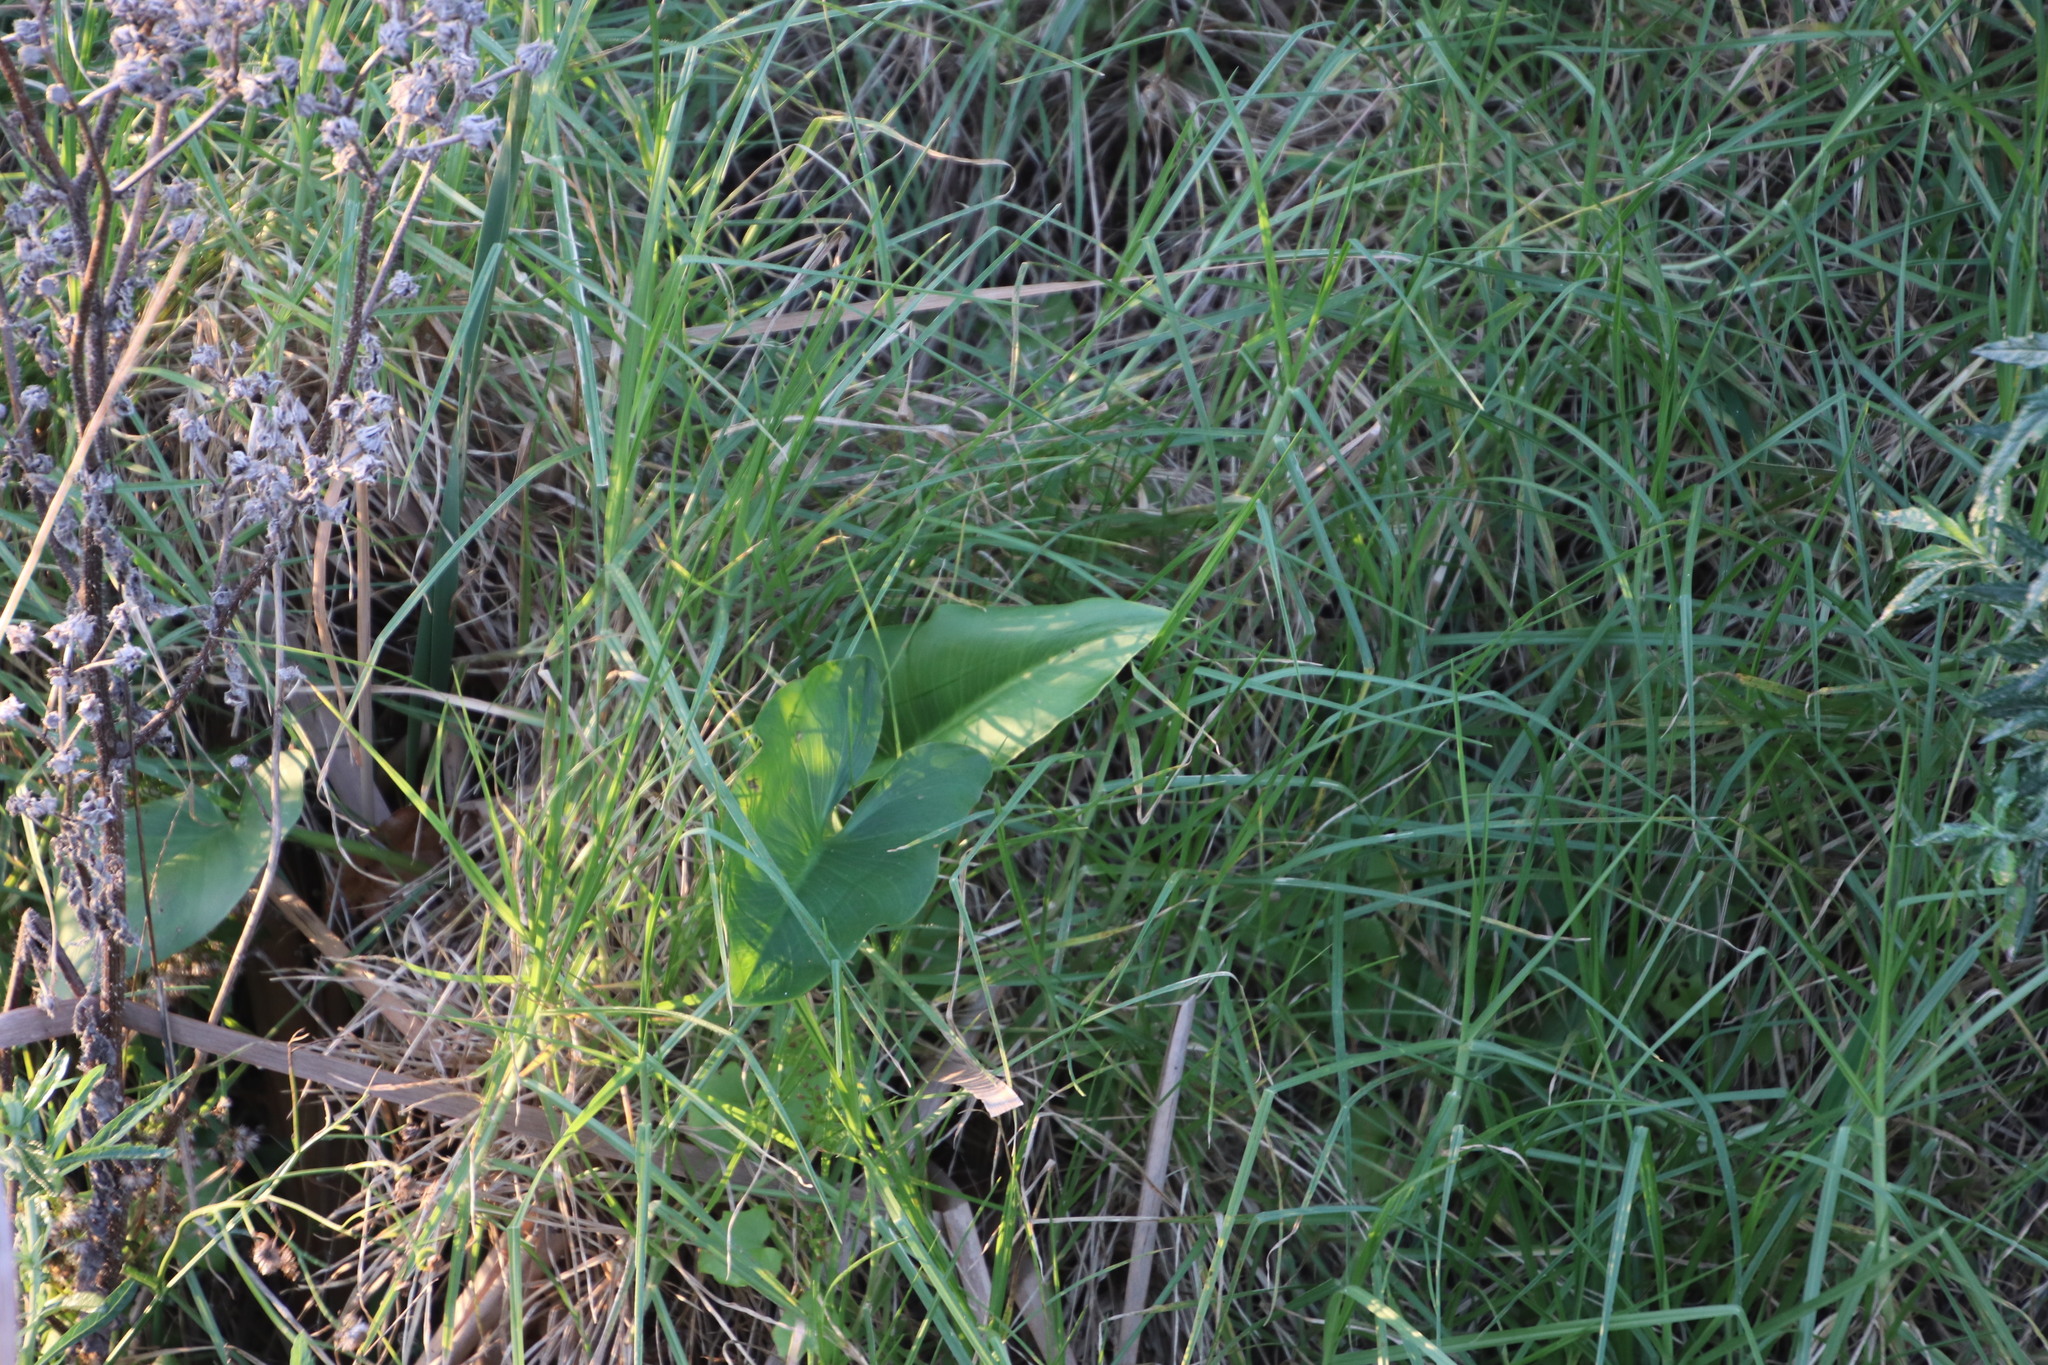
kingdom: Plantae
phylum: Tracheophyta
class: Liliopsida
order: Alismatales
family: Araceae
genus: Zantedeschia
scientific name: Zantedeschia aethiopica
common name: Altar-lily
